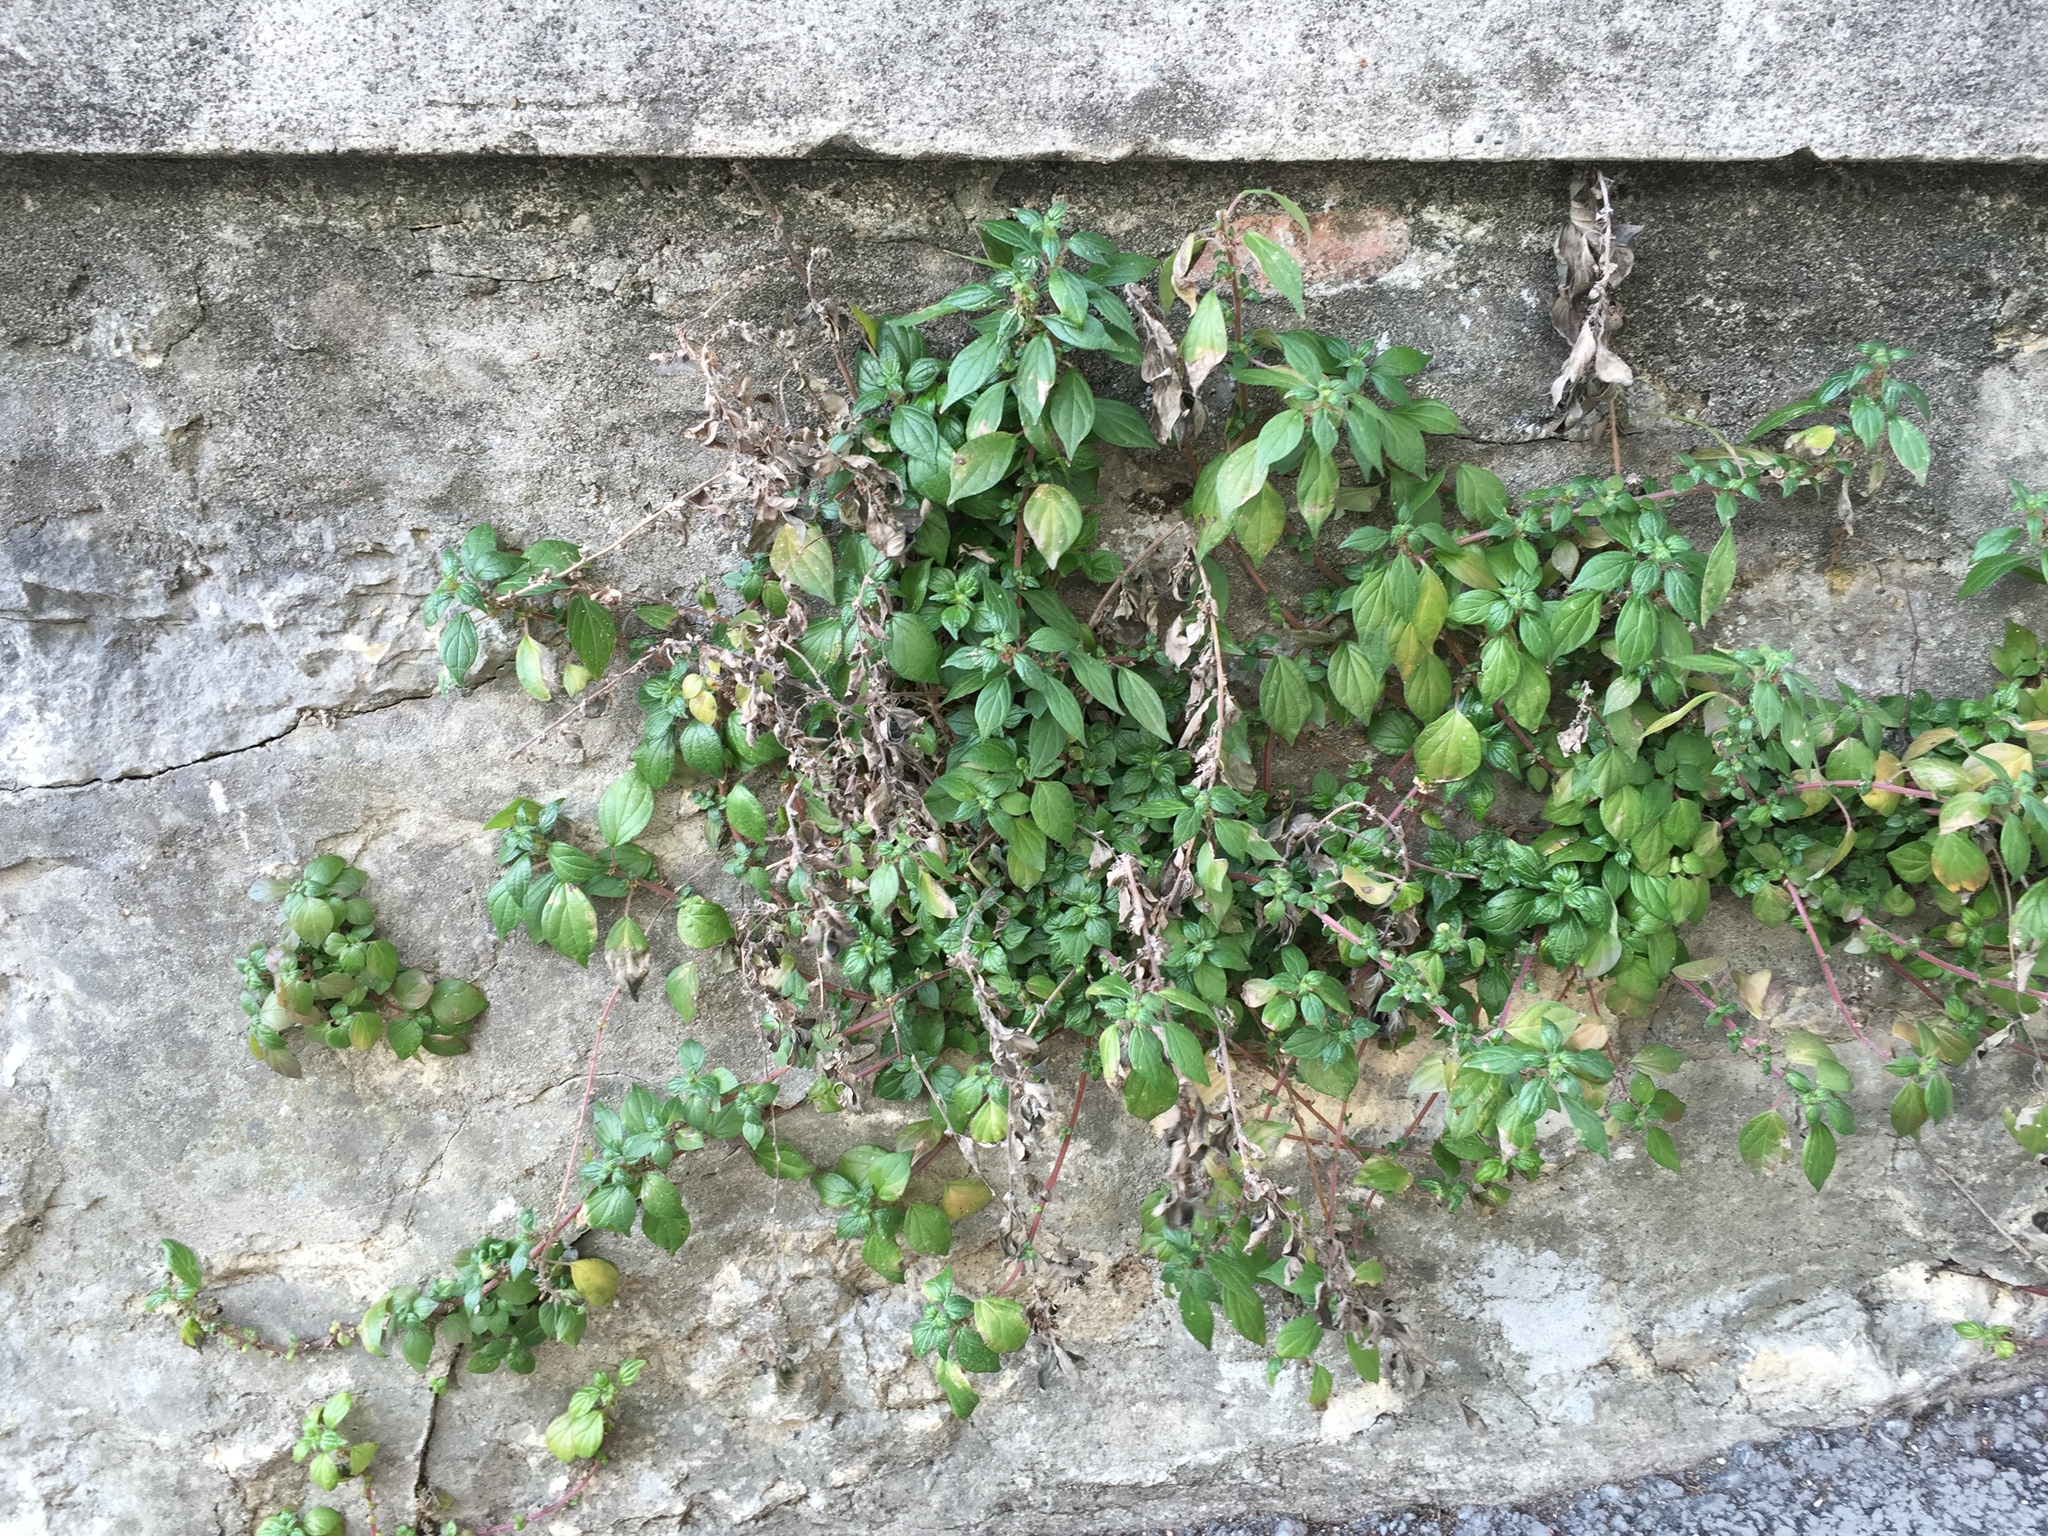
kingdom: Plantae
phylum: Tracheophyta
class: Magnoliopsida
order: Rosales
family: Urticaceae
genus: Parietaria
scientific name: Parietaria officinalis
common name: Eastern pellitory-of-the-wall
